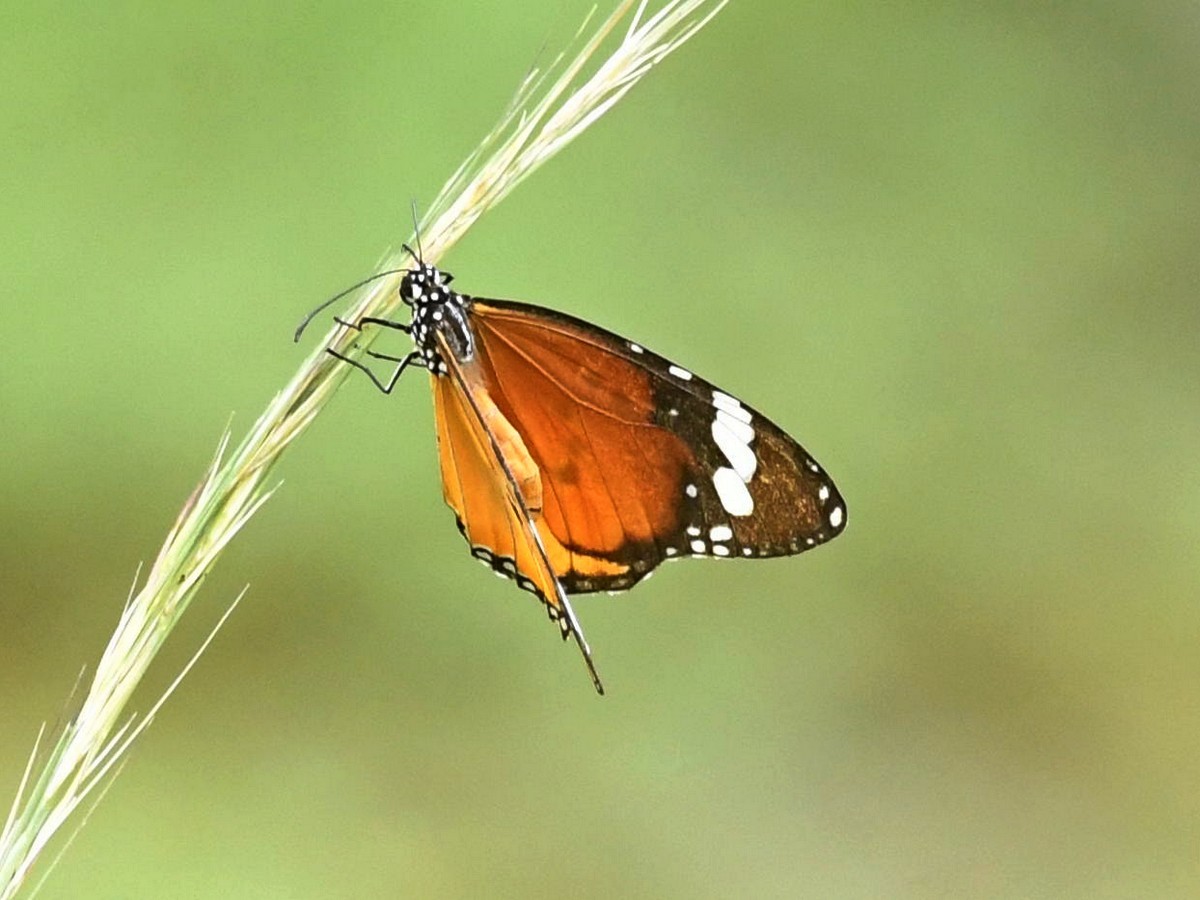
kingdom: Animalia
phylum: Arthropoda
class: Insecta
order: Lepidoptera
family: Nymphalidae
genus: Danaus
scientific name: Danaus chrysippus
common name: Plain tiger
